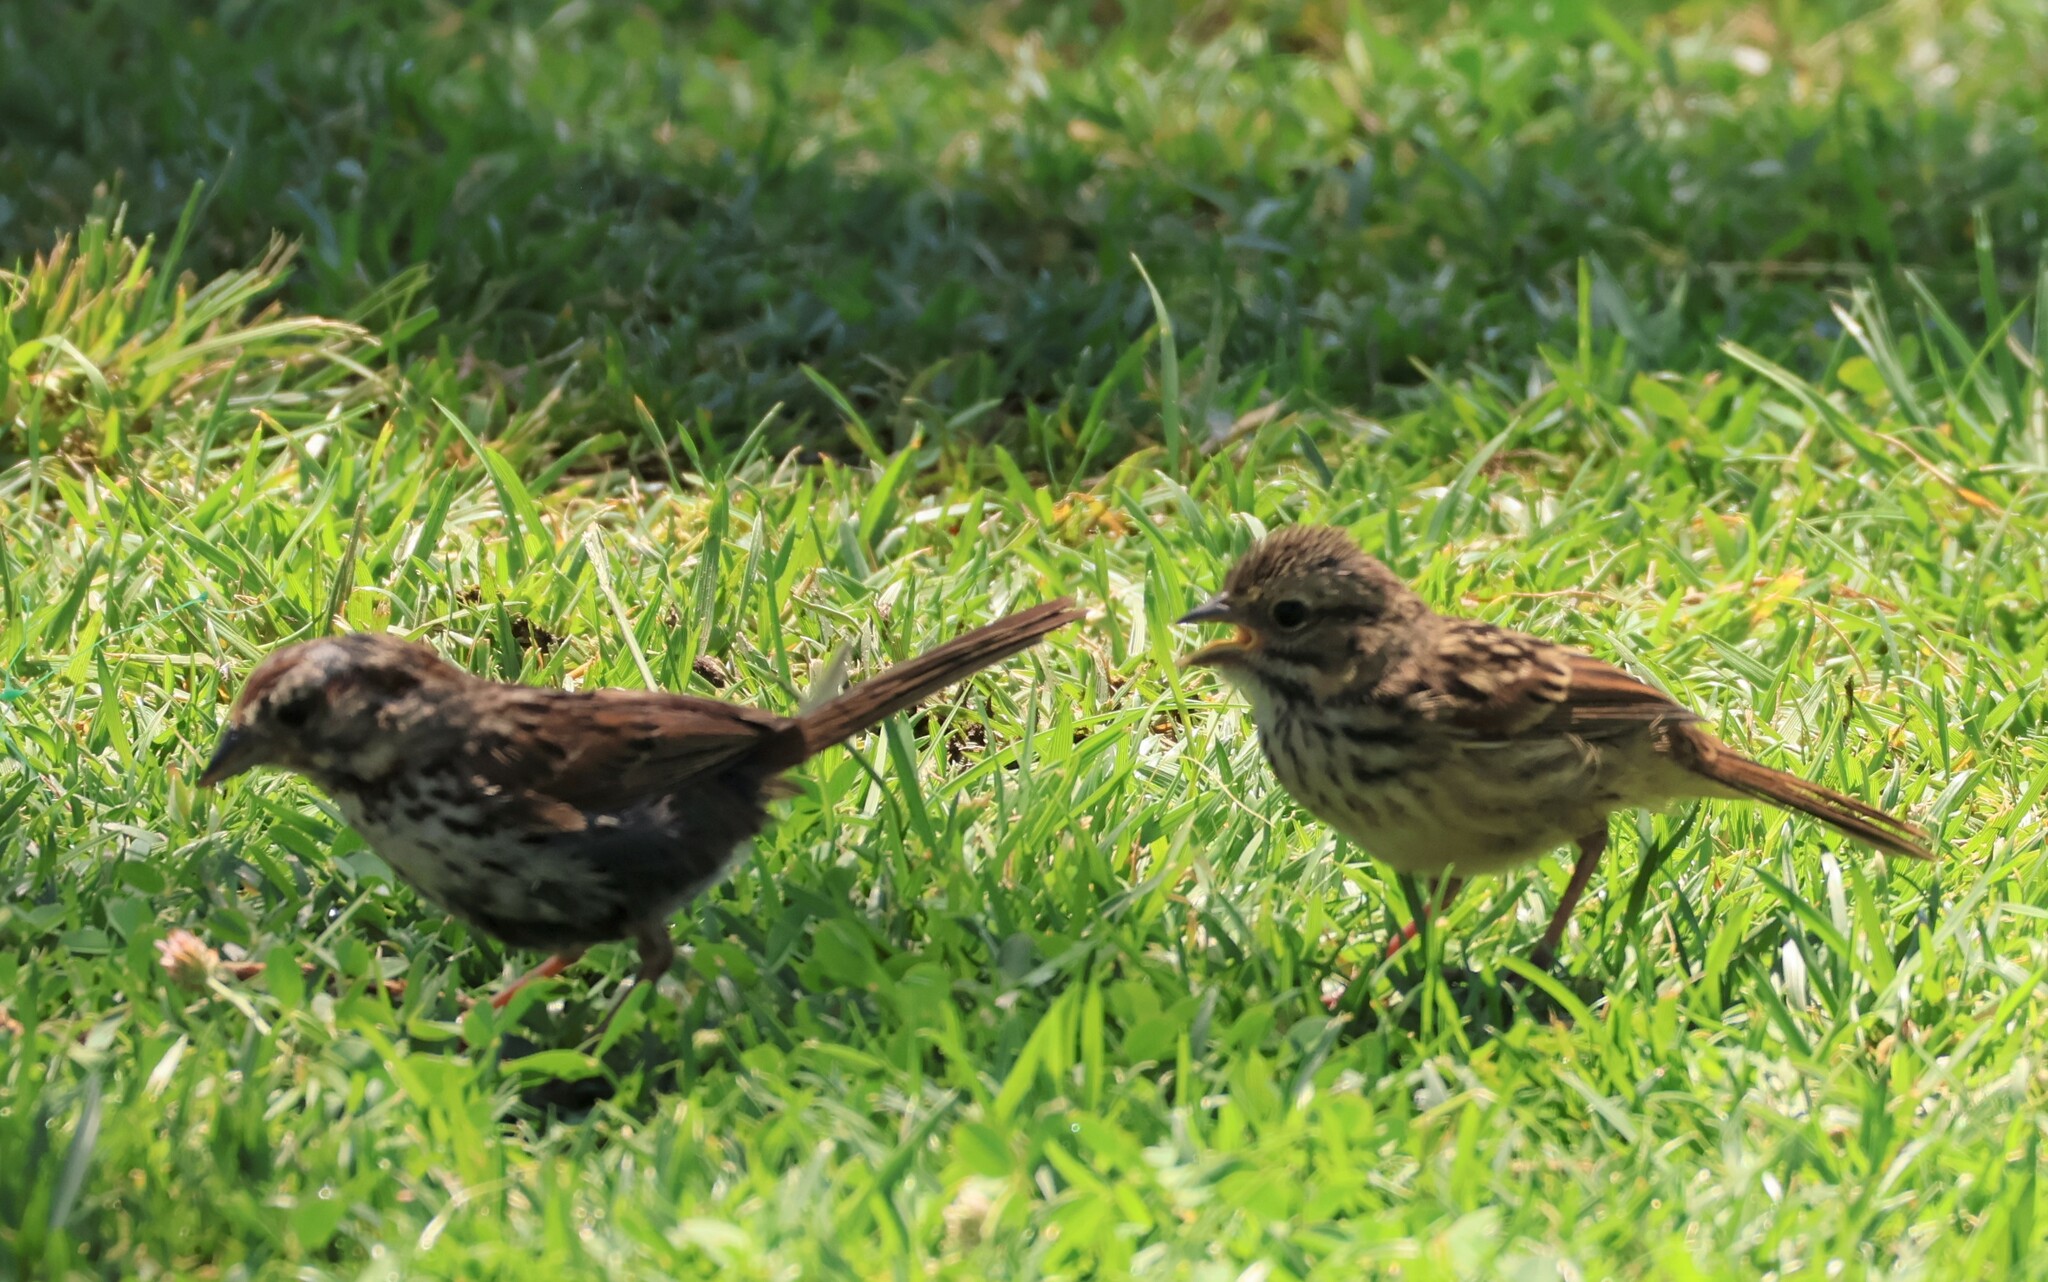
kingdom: Animalia
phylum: Chordata
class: Aves
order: Passeriformes
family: Passerellidae
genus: Melospiza
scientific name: Melospiza melodia
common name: Song sparrow
